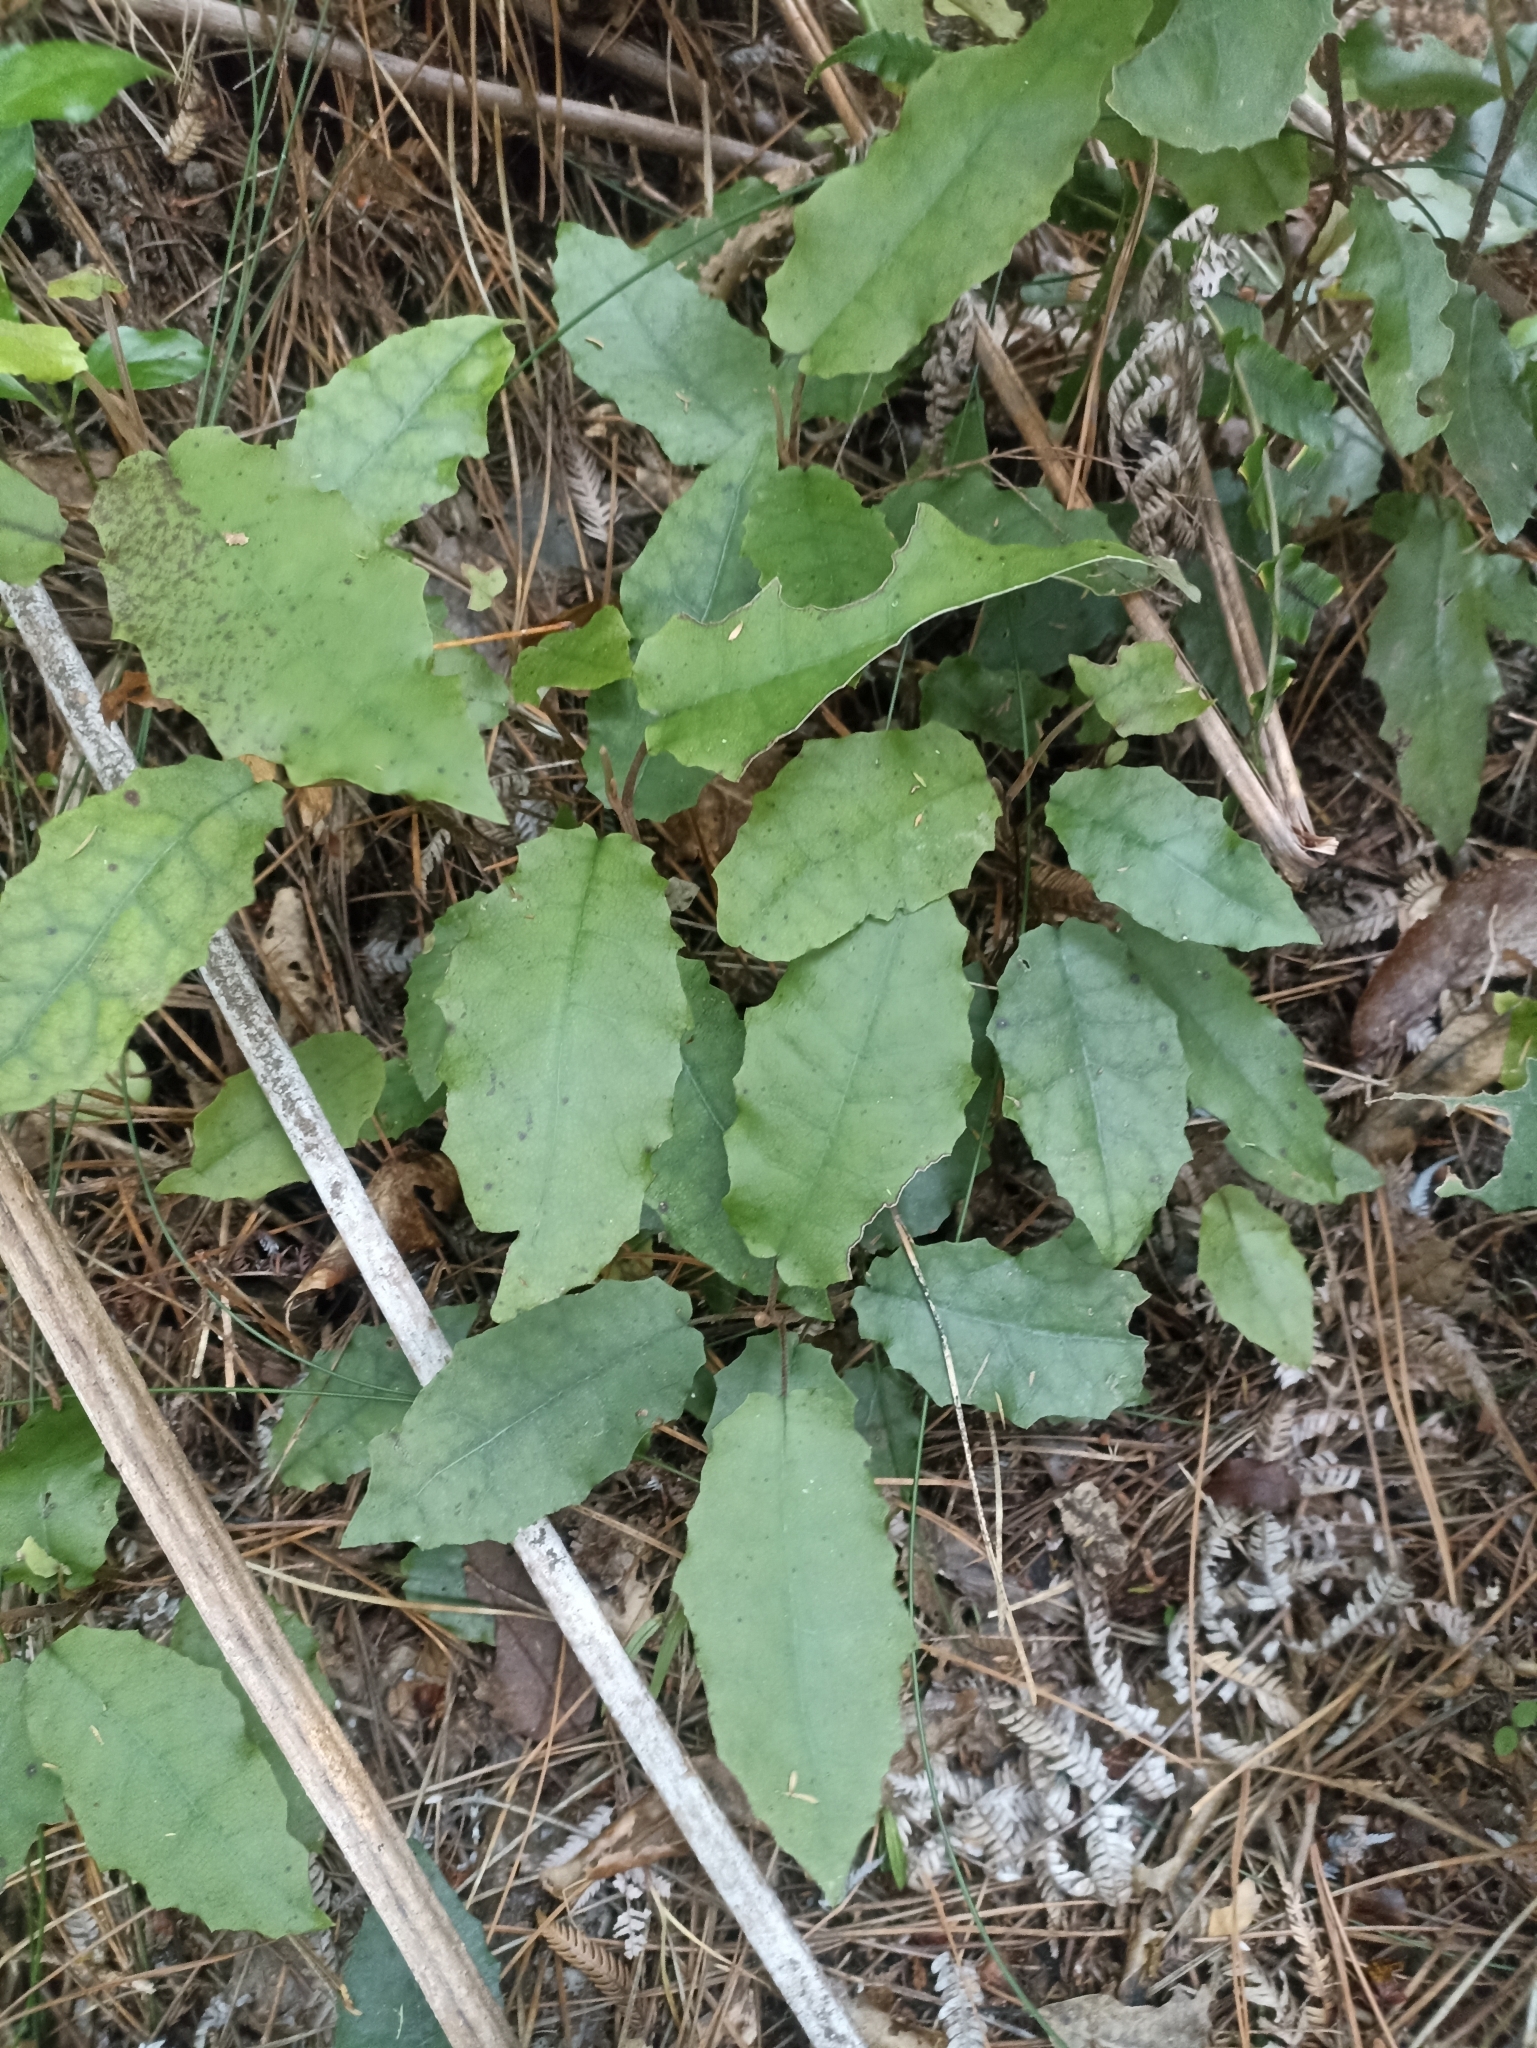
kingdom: Plantae
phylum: Tracheophyta
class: Magnoliopsida
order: Asterales
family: Asteraceae
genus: Brachyglottis
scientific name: Brachyglottis myrianthos
